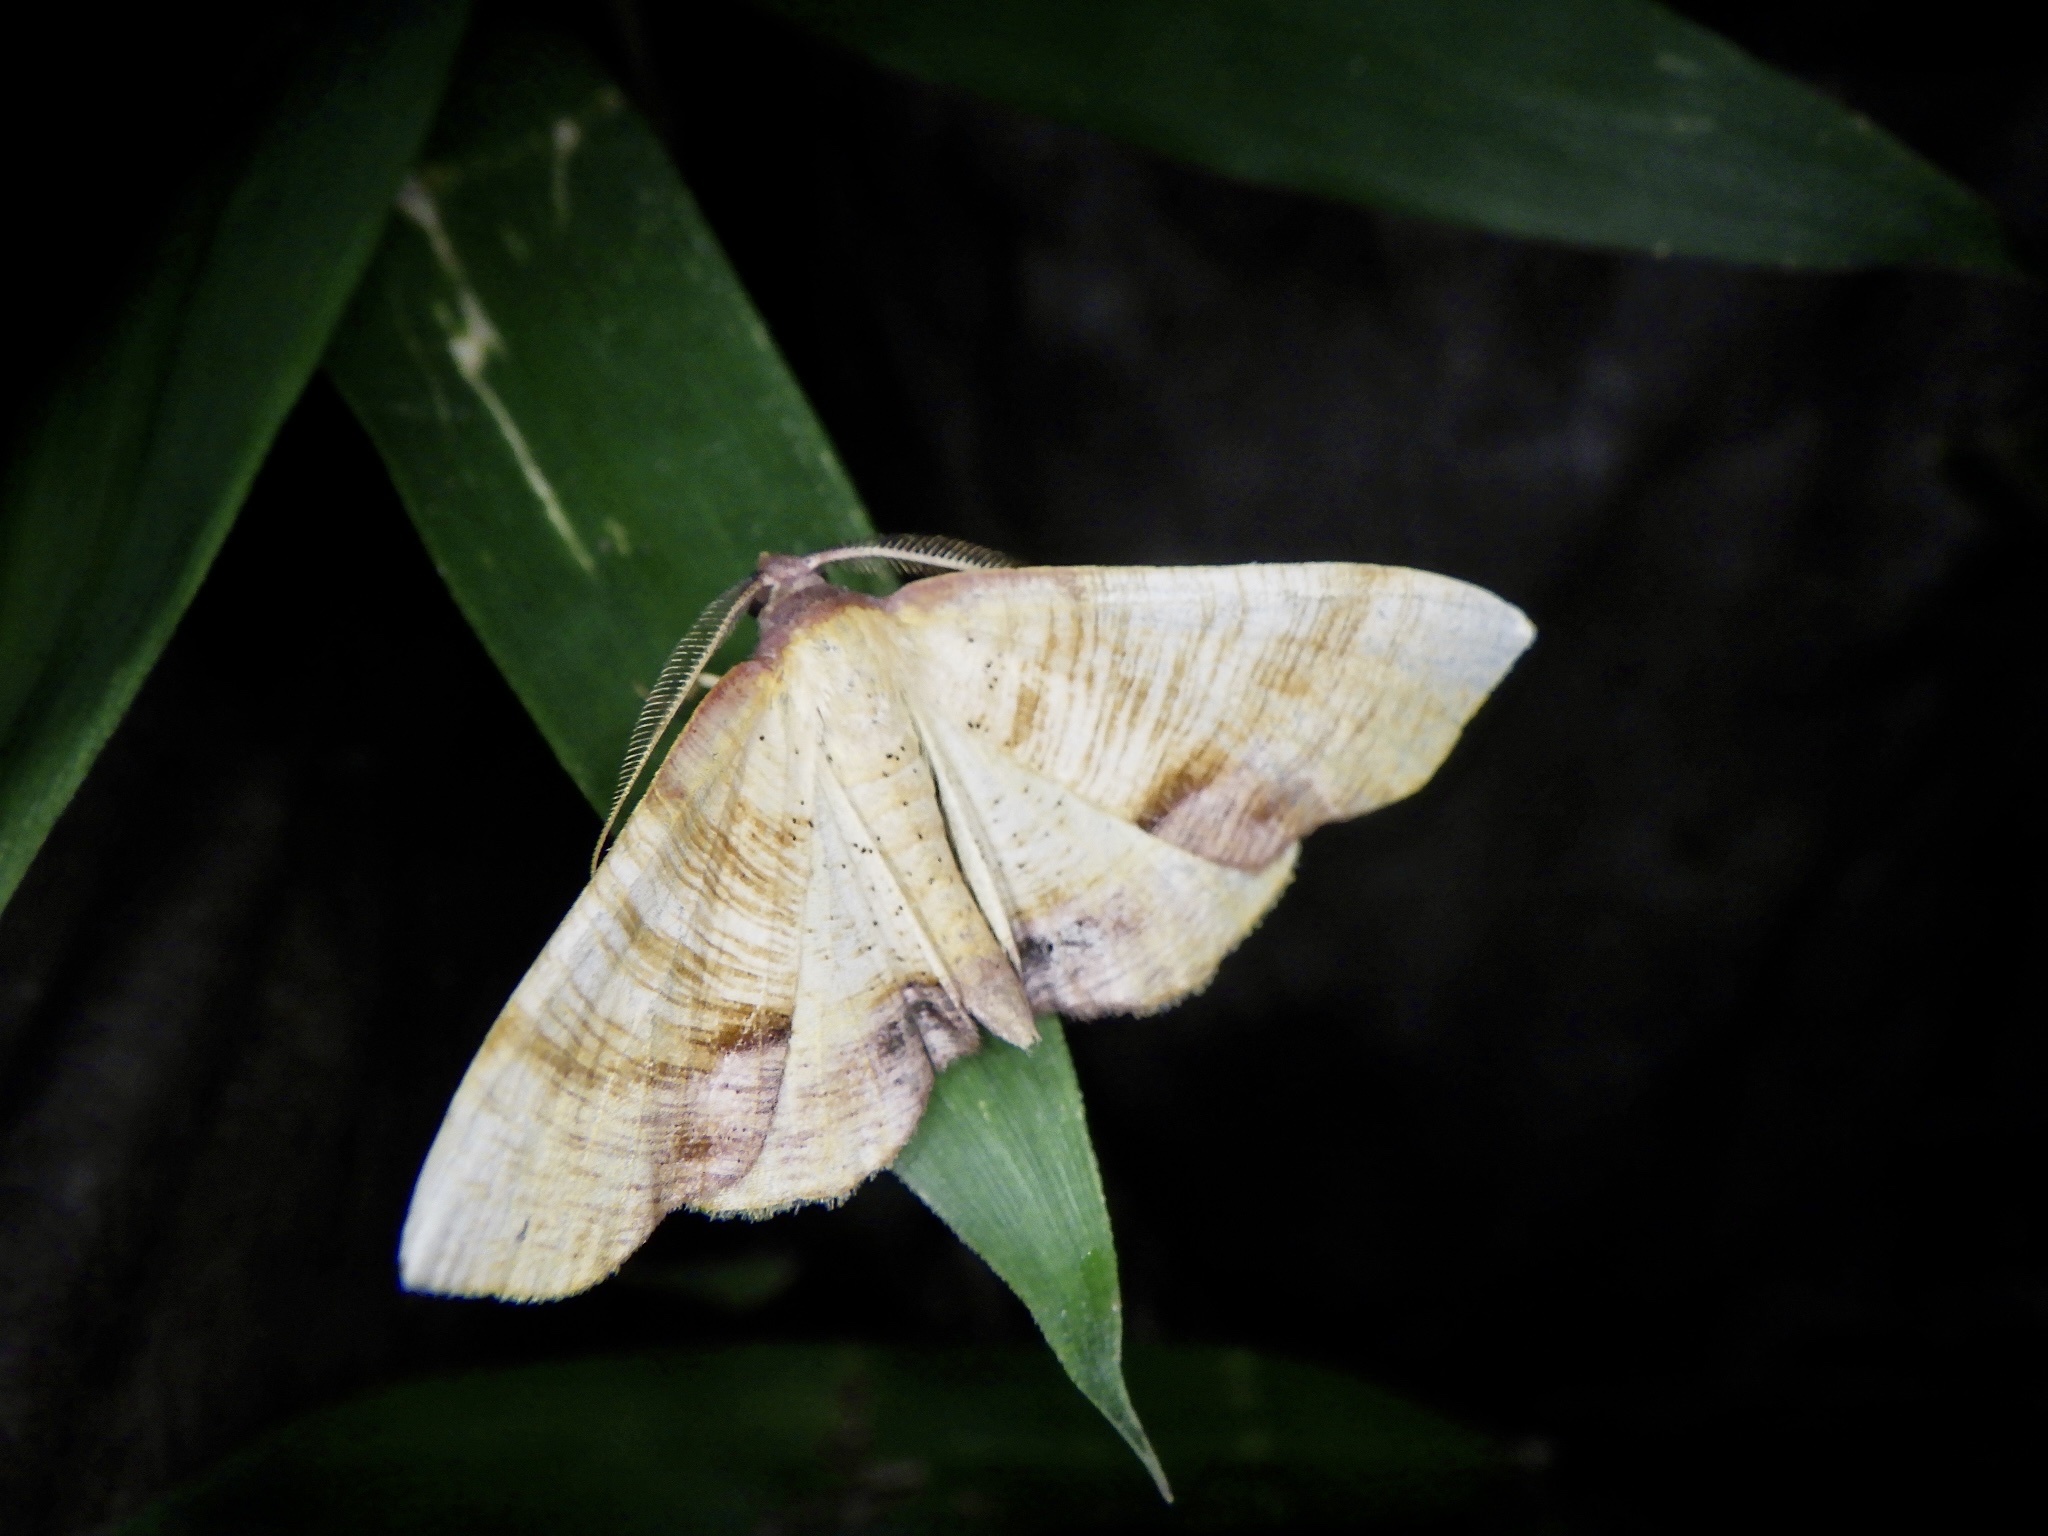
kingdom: Animalia
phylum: Arthropoda
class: Insecta
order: Lepidoptera
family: Geometridae
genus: Plagodis
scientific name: Plagodis dolabraria
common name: Scorched wing
